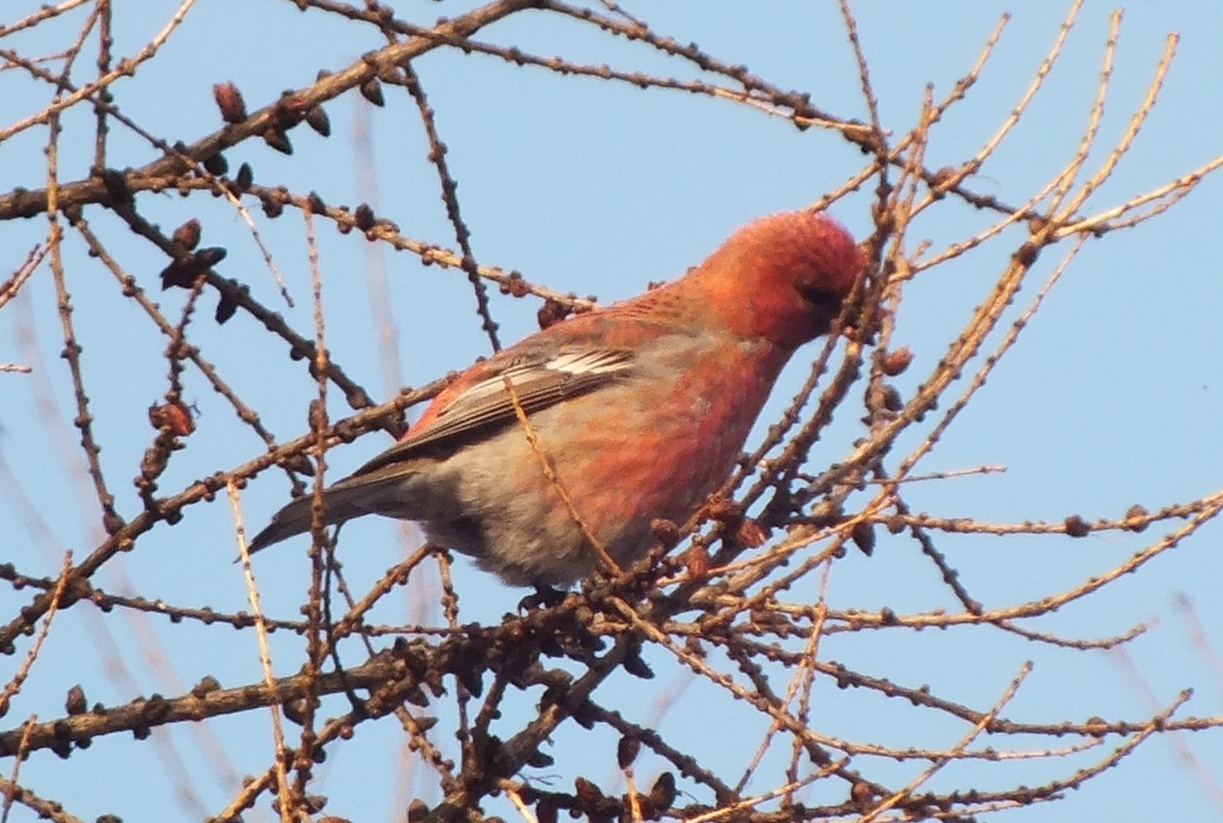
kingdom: Animalia
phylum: Chordata
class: Aves
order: Passeriformes
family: Fringillidae
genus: Pinicola
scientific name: Pinicola enucleator
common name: Pine grosbeak
